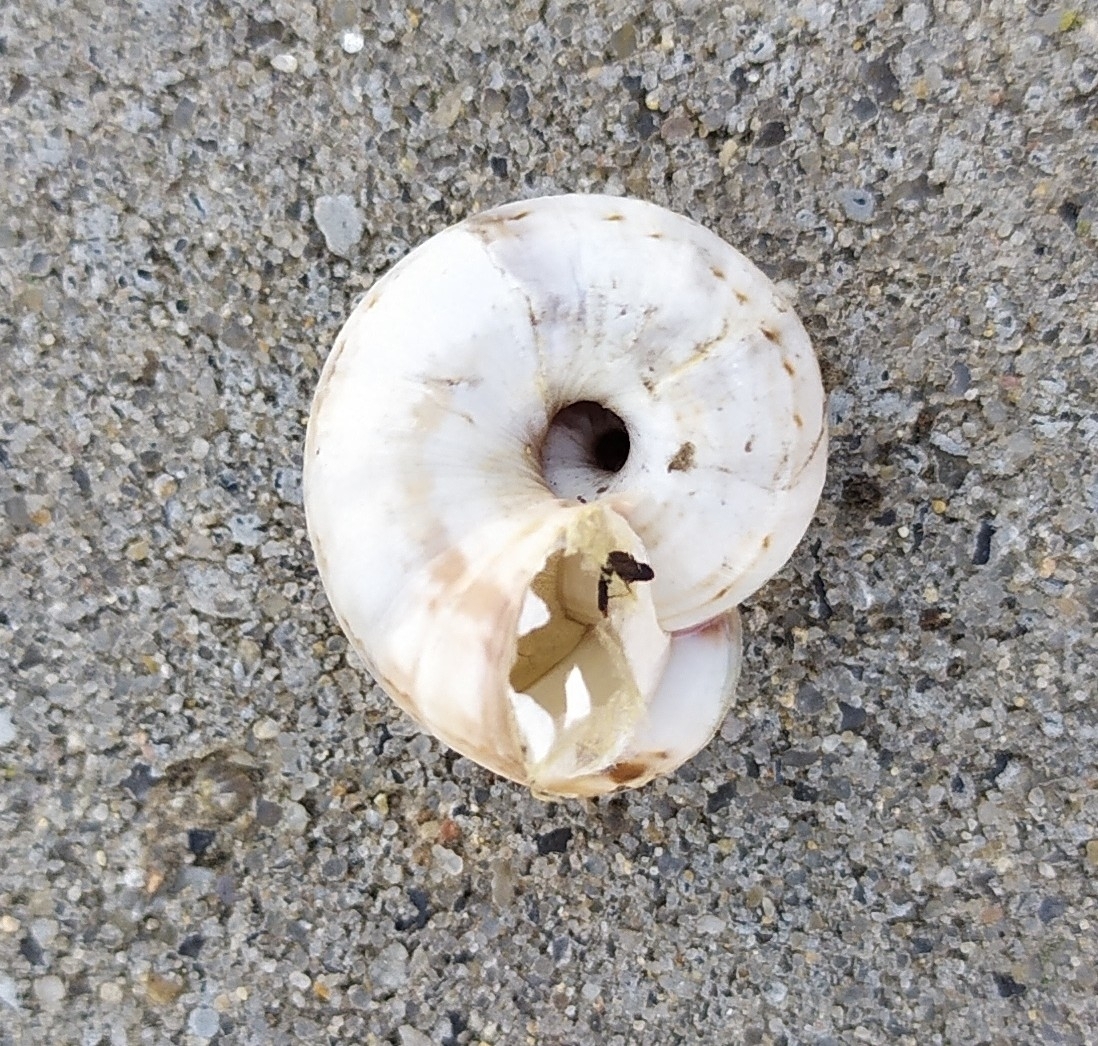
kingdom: Animalia
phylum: Mollusca
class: Gastropoda
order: Stylommatophora
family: Geomitridae
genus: Xeropicta
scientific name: Xeropicta derbentina
